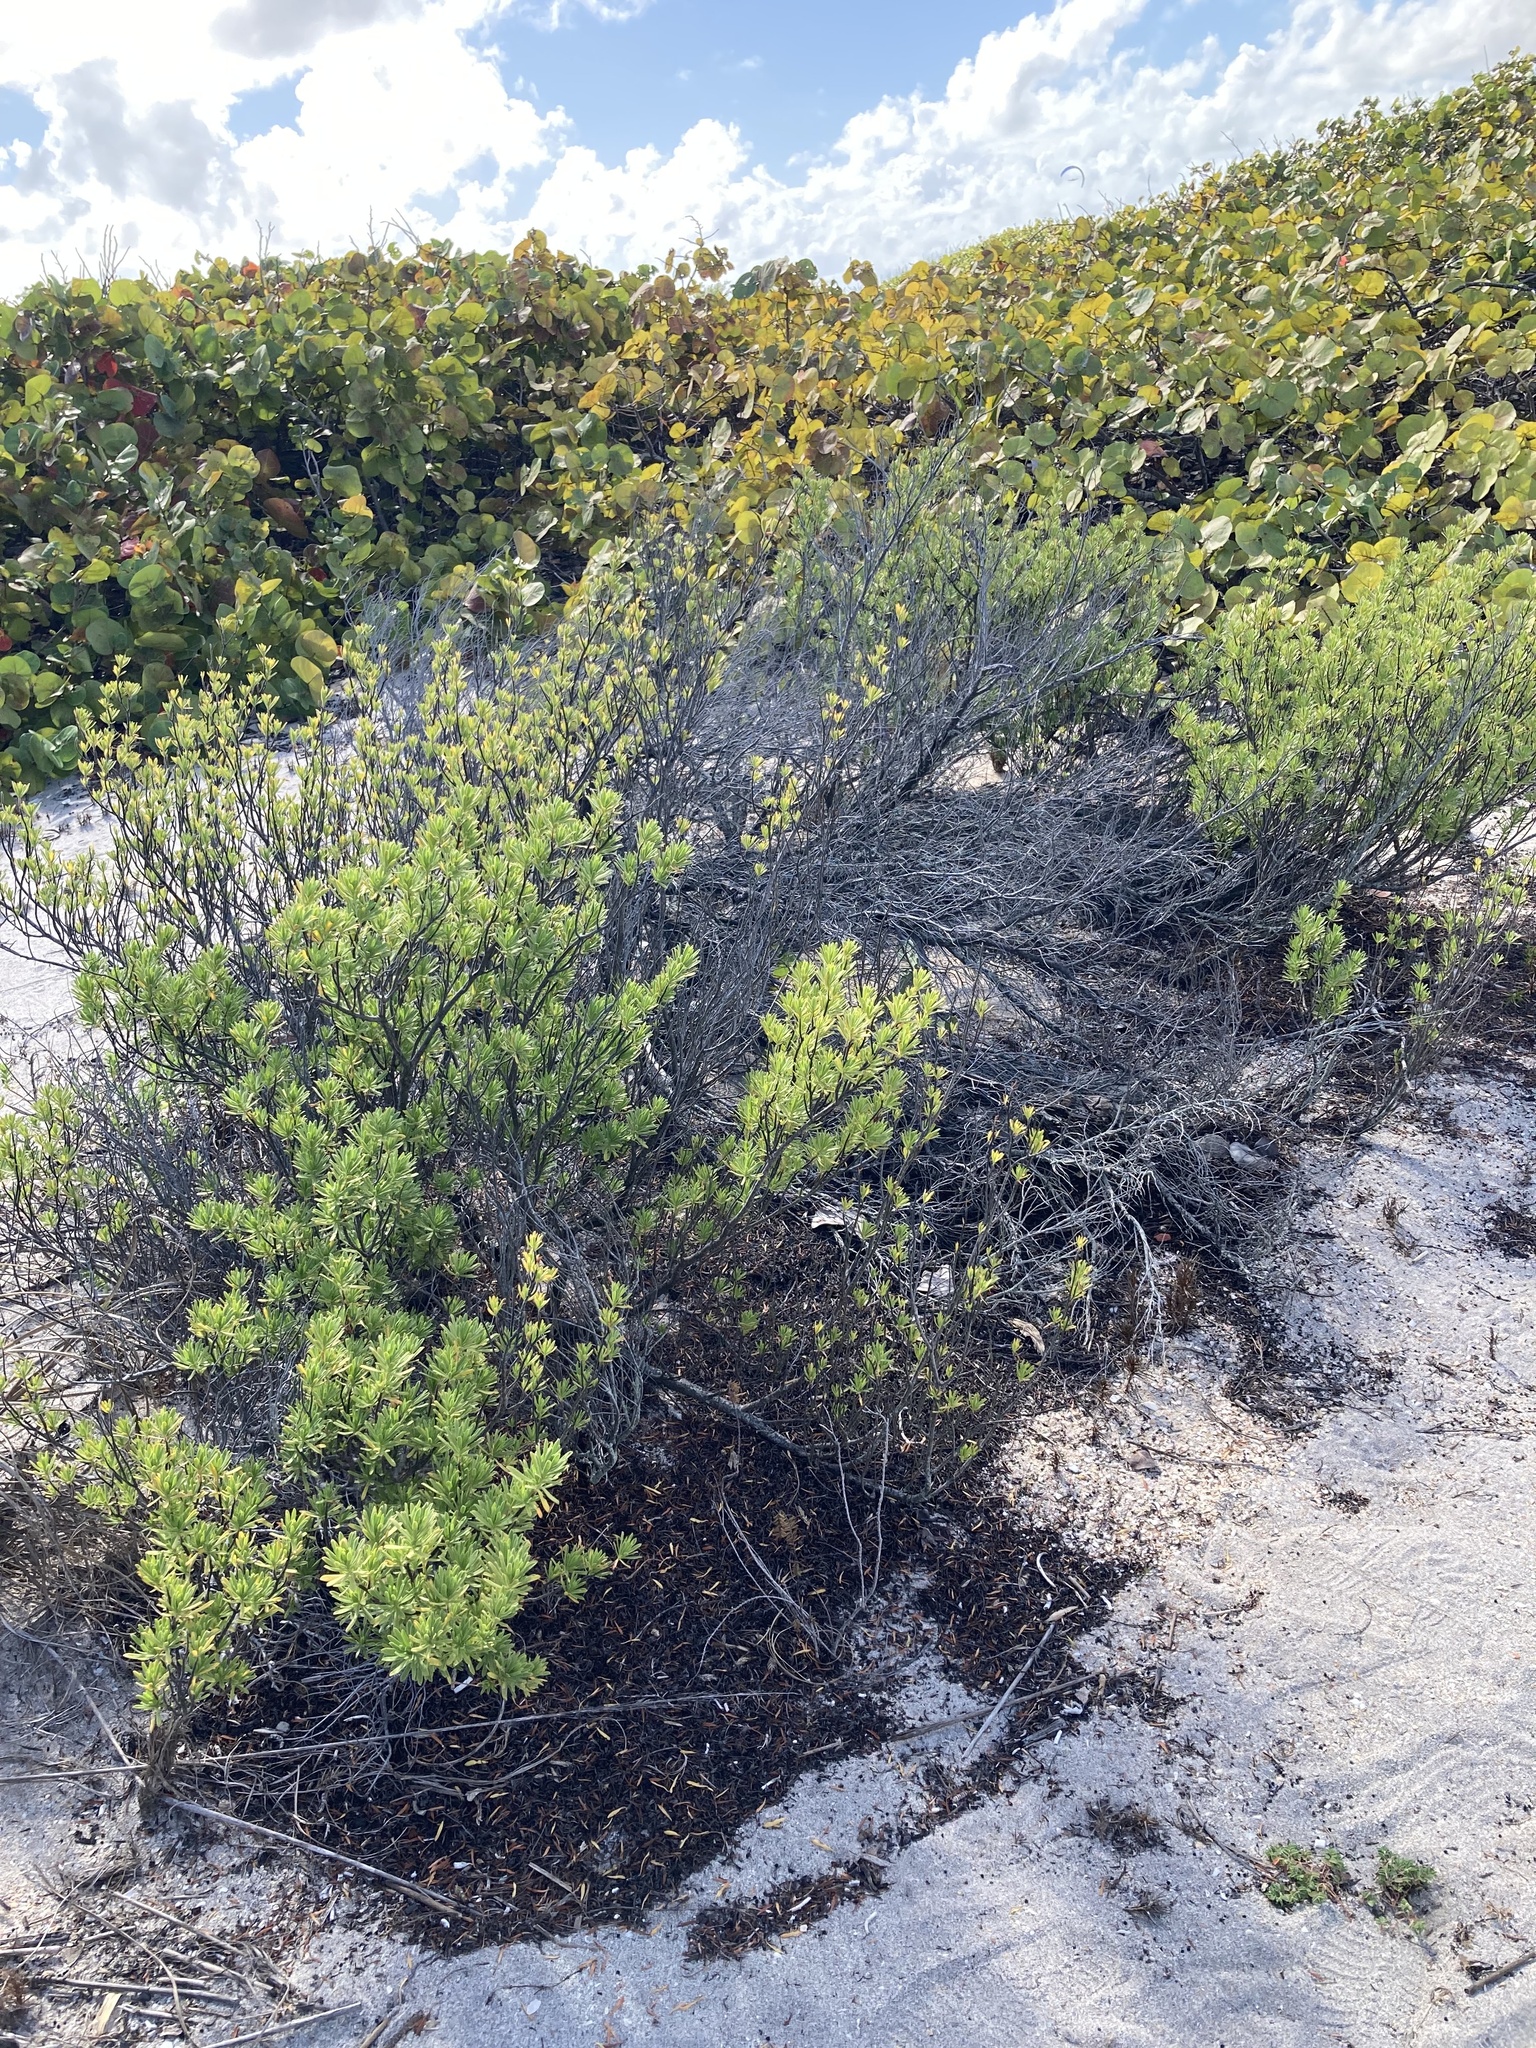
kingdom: Plantae
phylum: Tracheophyta
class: Magnoliopsida
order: Fabales
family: Surianaceae
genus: Suriana
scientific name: Suriana maritima
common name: Bay-cedar
